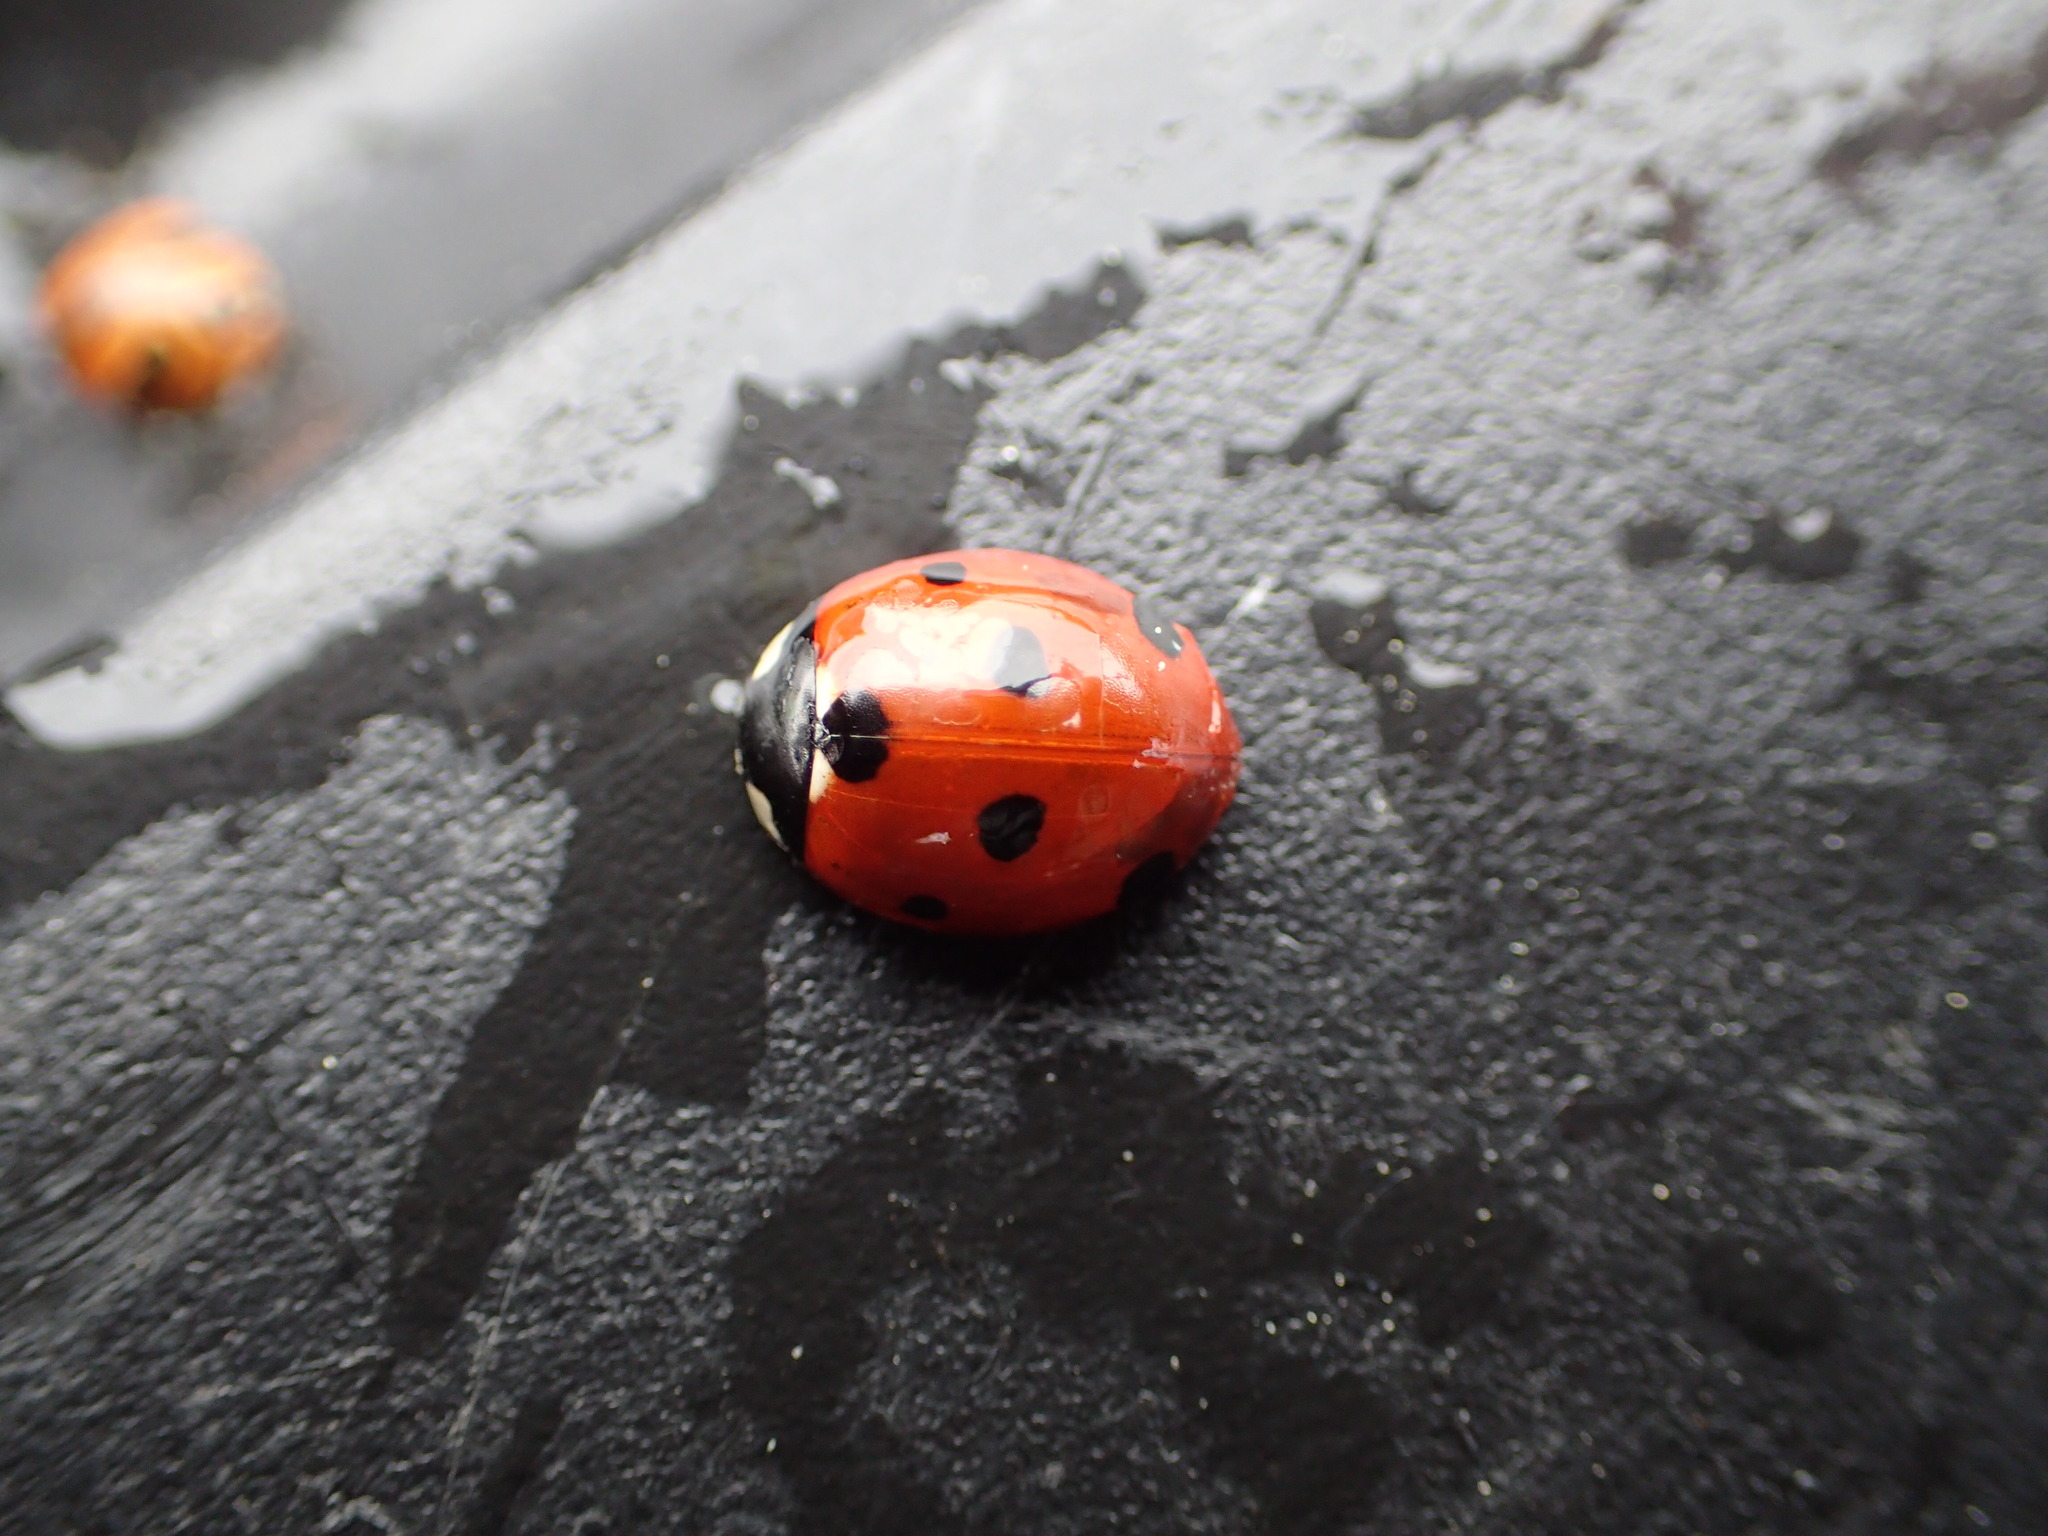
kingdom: Animalia
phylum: Arthropoda
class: Insecta
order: Coleoptera
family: Coccinellidae
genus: Coccinella
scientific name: Coccinella septempunctata
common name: Sevenspotted lady beetle
